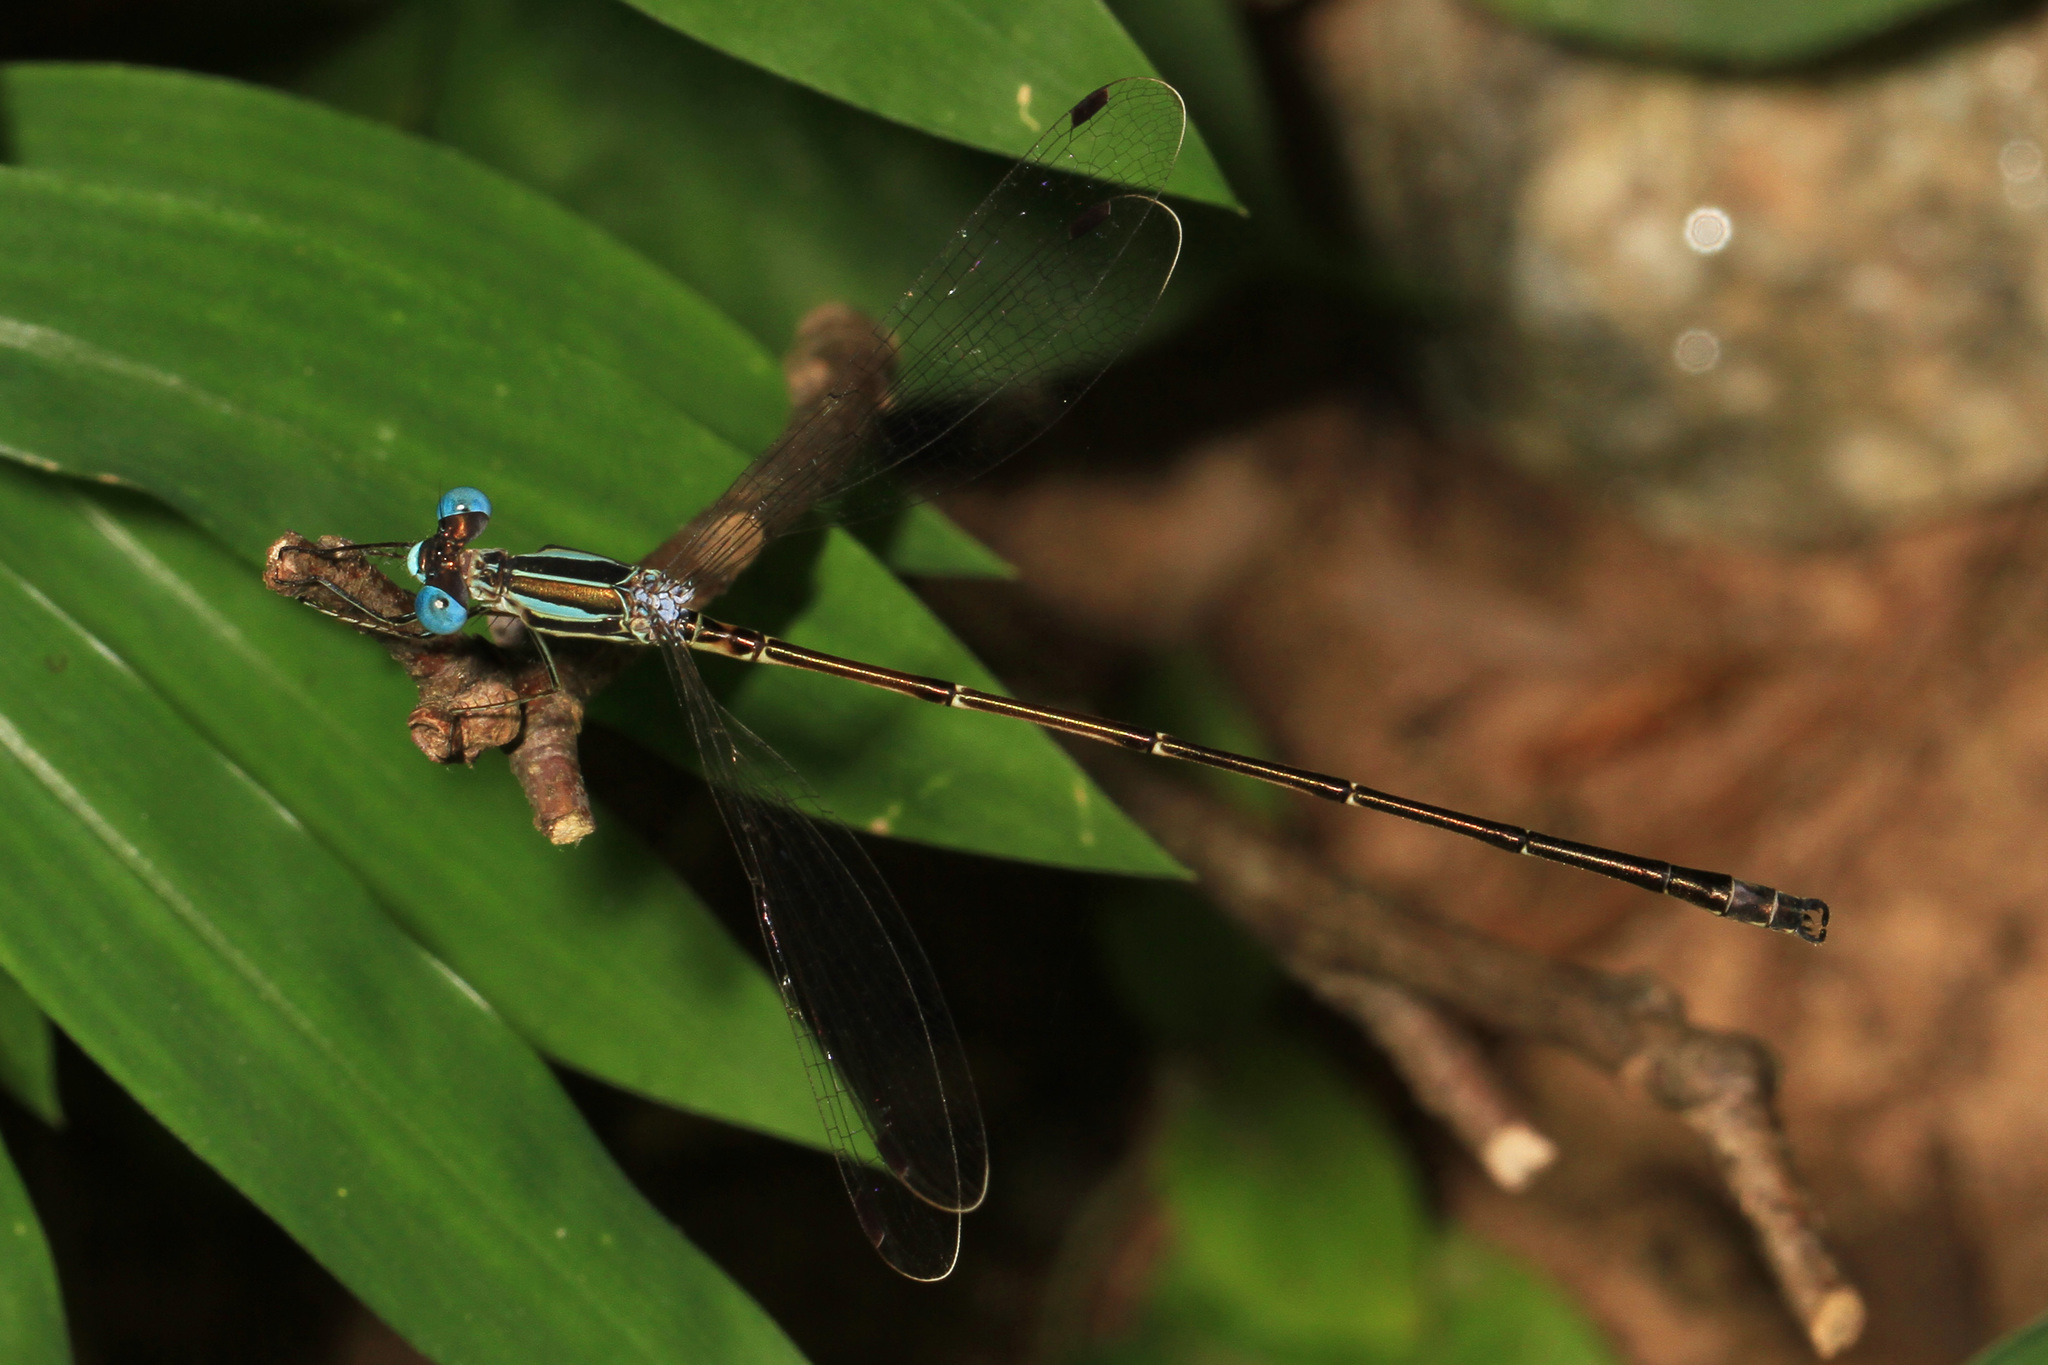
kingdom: Animalia
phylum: Arthropoda
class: Insecta
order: Odonata
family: Lestidae
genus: Lestes
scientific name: Lestes rectangularis
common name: Slender spreadwing
